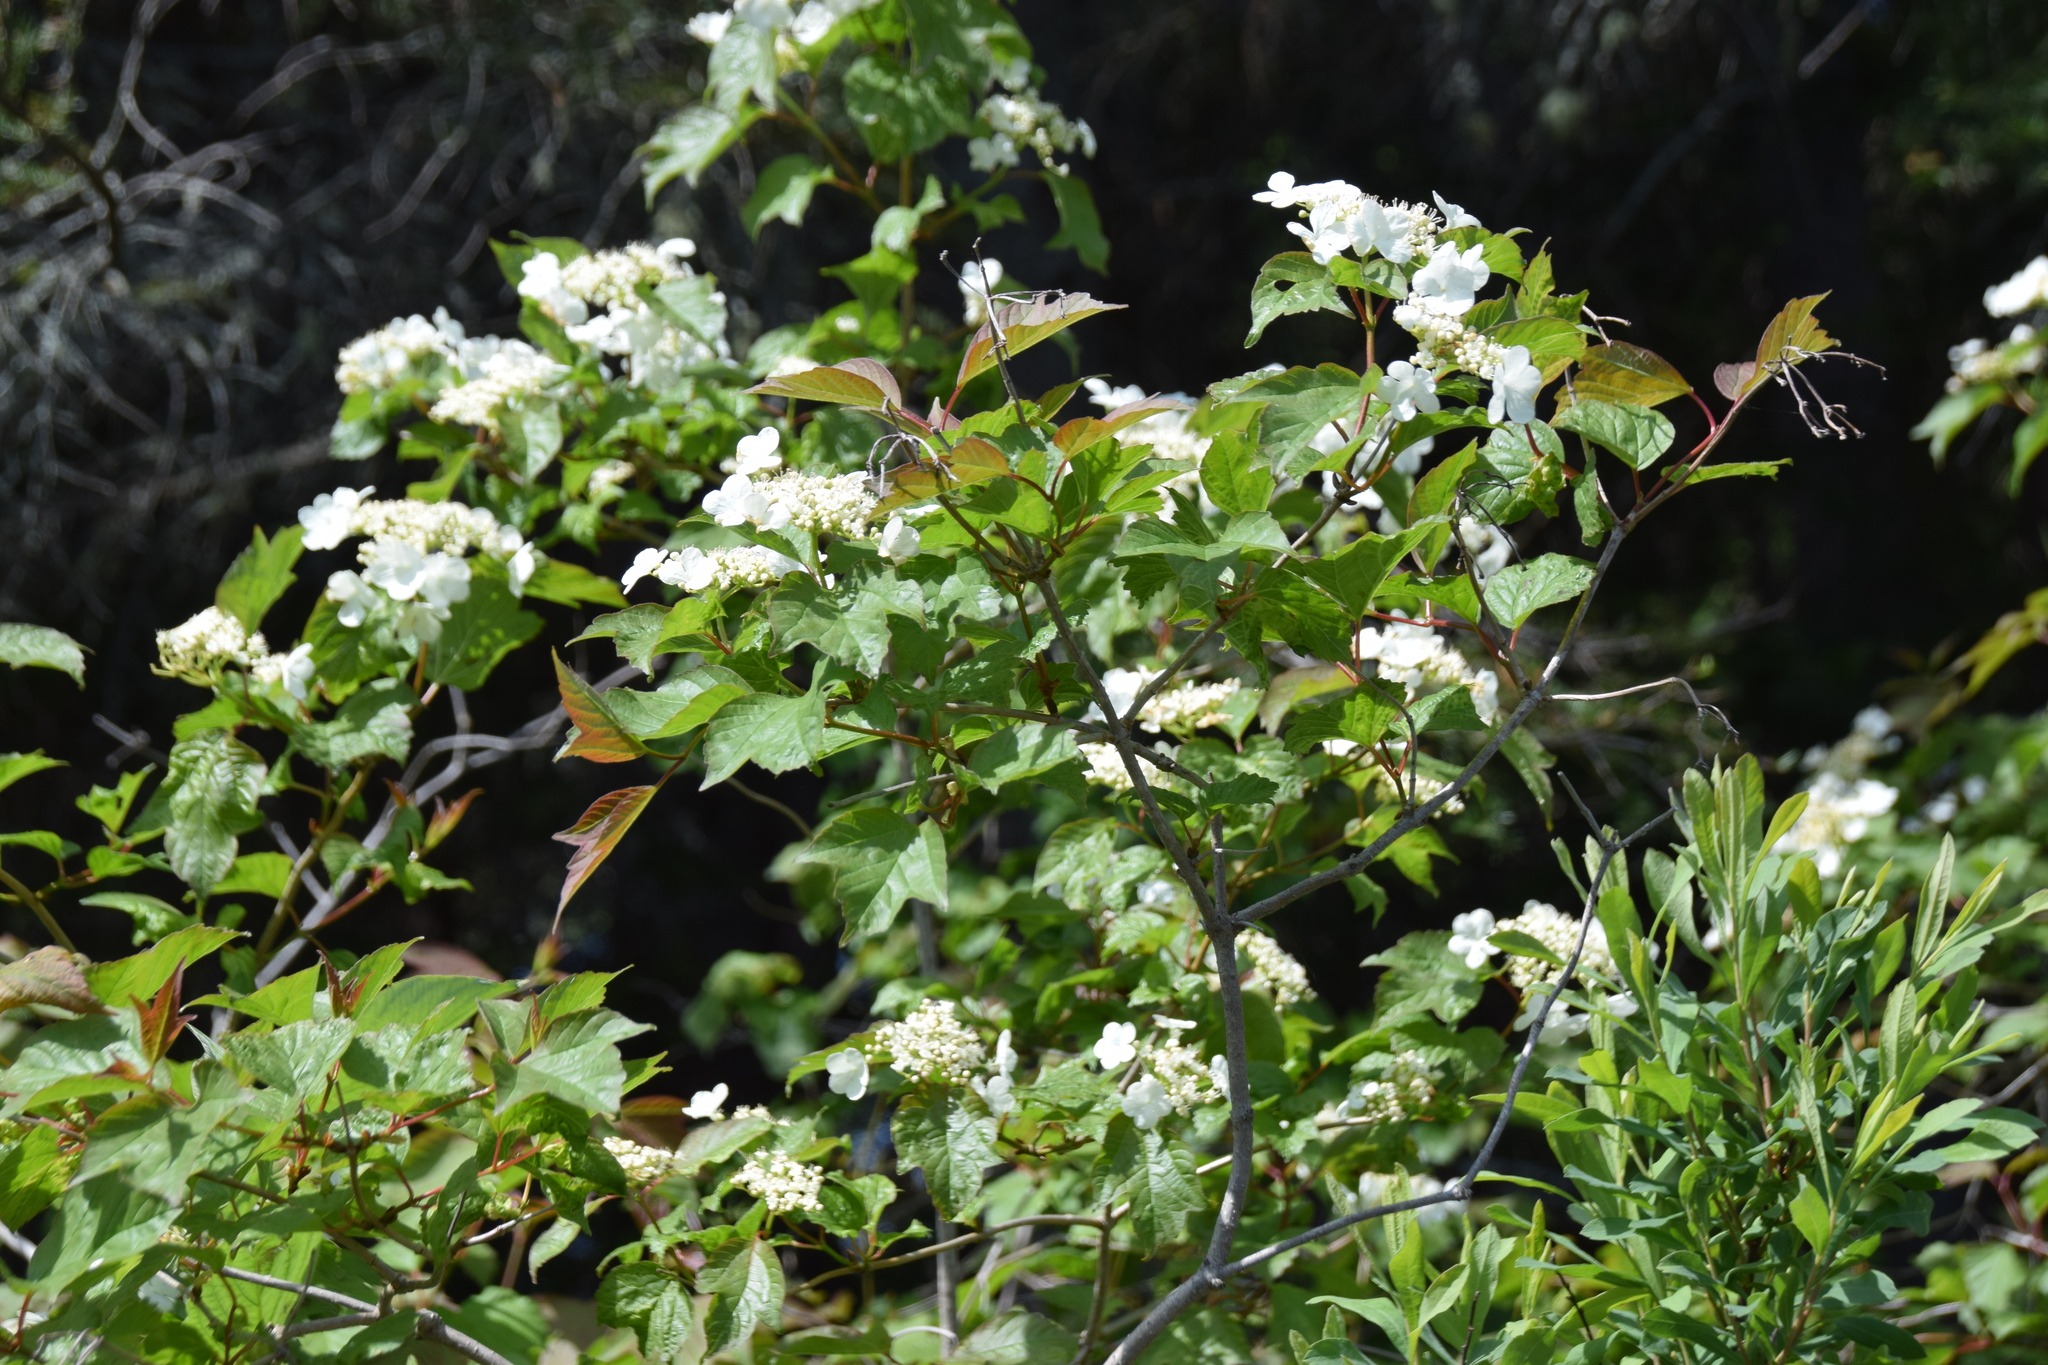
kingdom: Plantae
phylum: Tracheophyta
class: Magnoliopsida
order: Dipsacales
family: Viburnaceae
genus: Viburnum
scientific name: Viburnum opulus
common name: Guelder-rose
